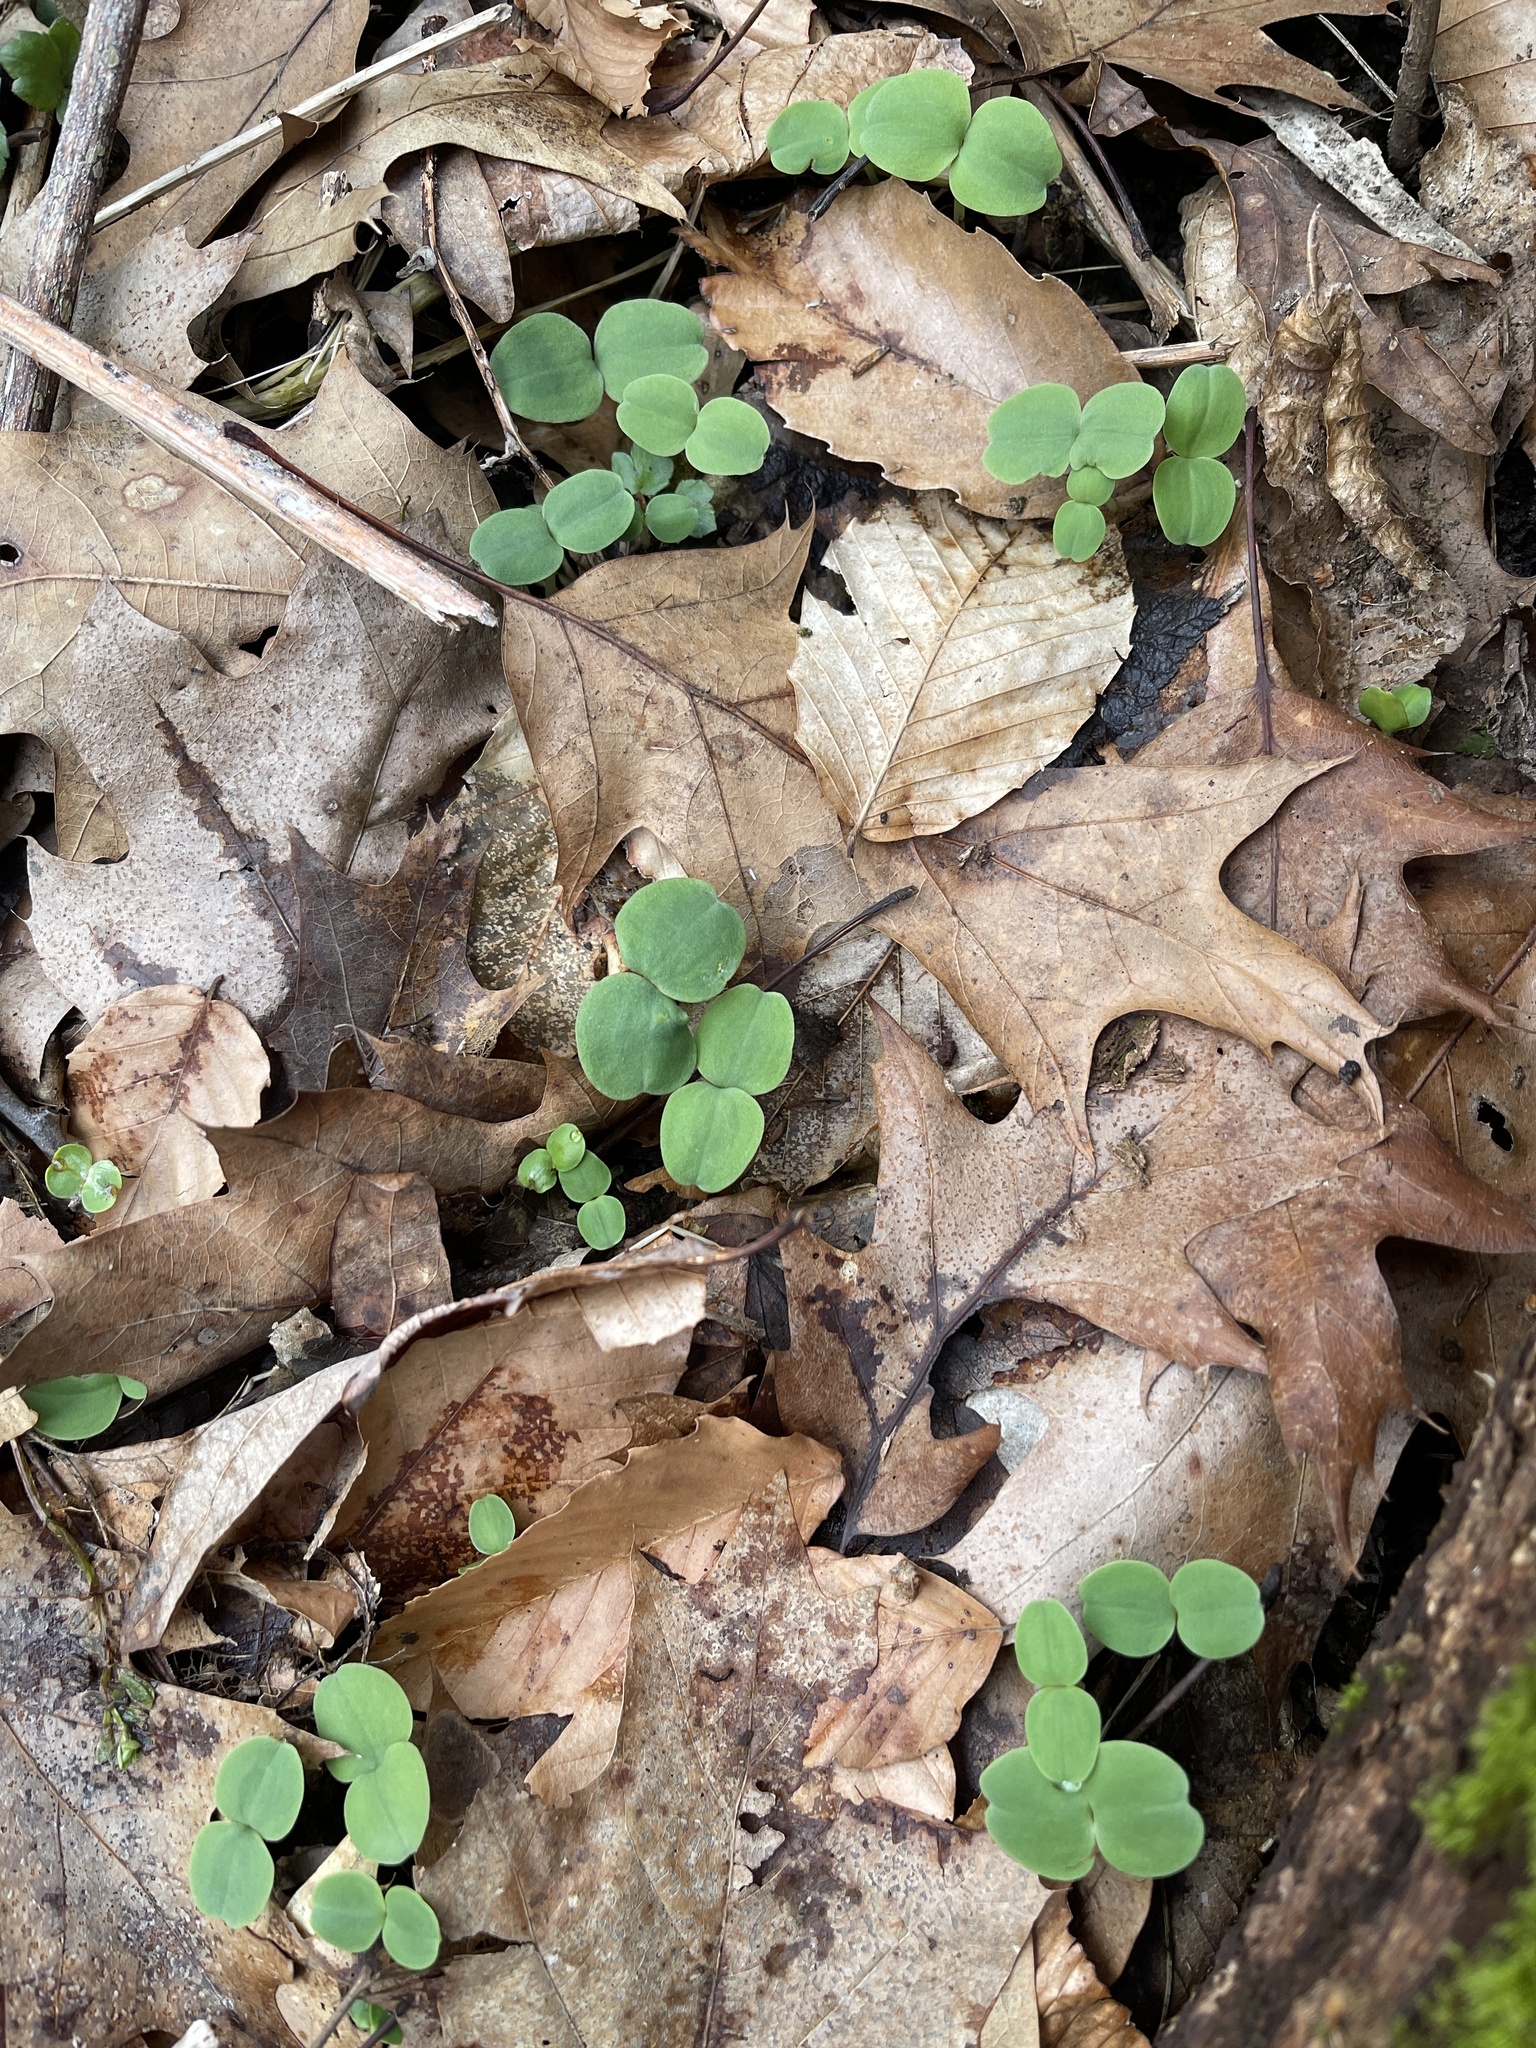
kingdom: Plantae
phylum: Tracheophyta
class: Magnoliopsida
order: Ericales
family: Balsaminaceae
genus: Impatiens
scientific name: Impatiens
